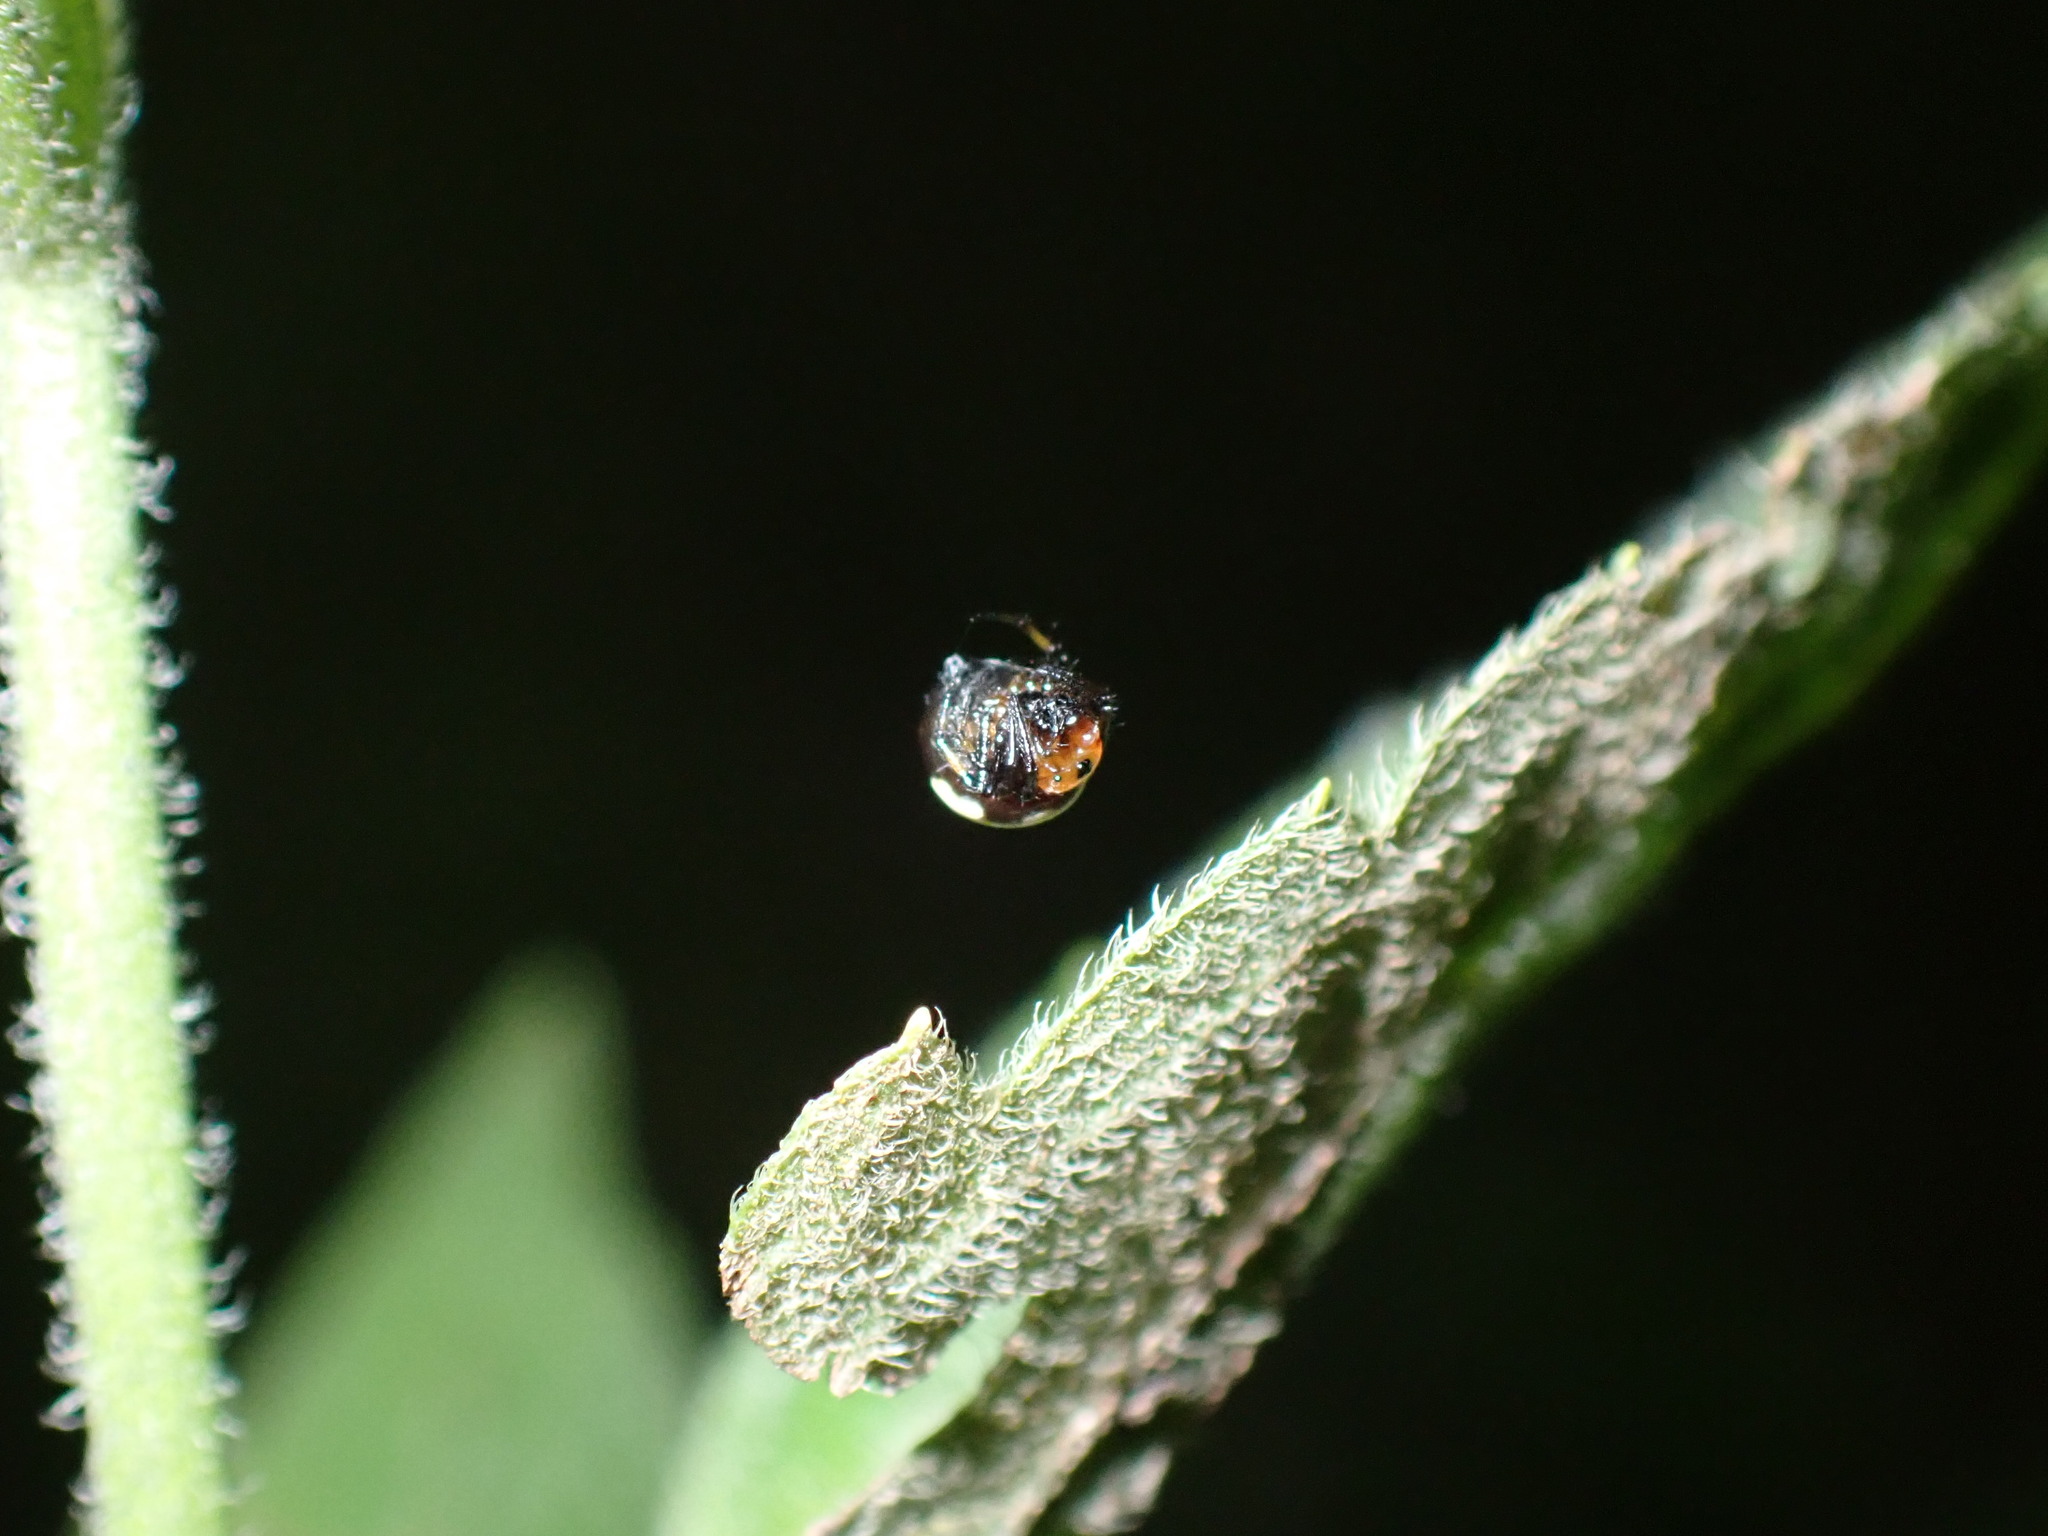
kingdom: Animalia
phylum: Arthropoda
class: Arachnida
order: Araneae
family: Araneidae
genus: Anepsion
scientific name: Anepsion maritatum
